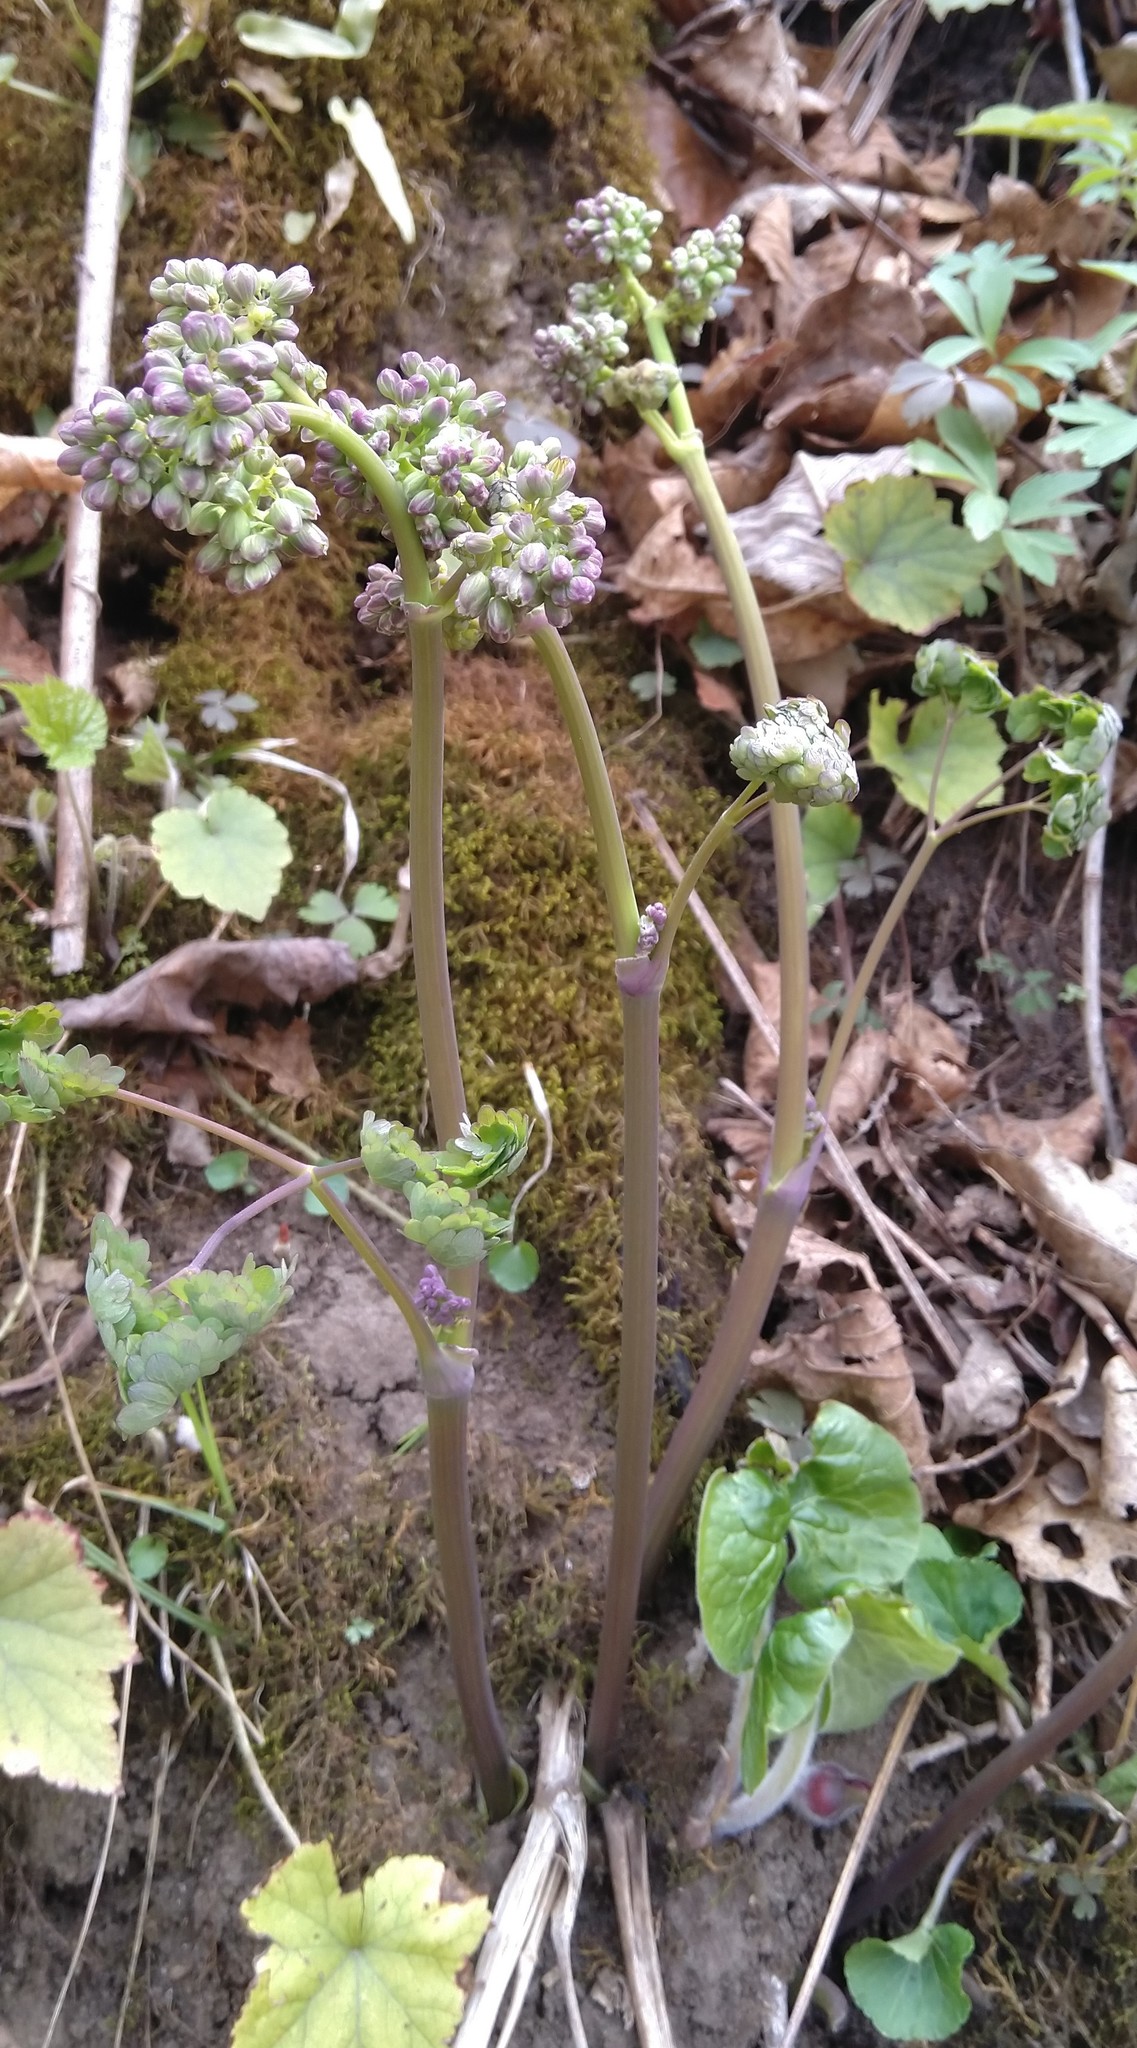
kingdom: Plantae
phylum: Tracheophyta
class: Magnoliopsida
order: Ranunculales
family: Ranunculaceae
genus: Thalictrum
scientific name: Thalictrum dioicum
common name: Early meadow-rue
